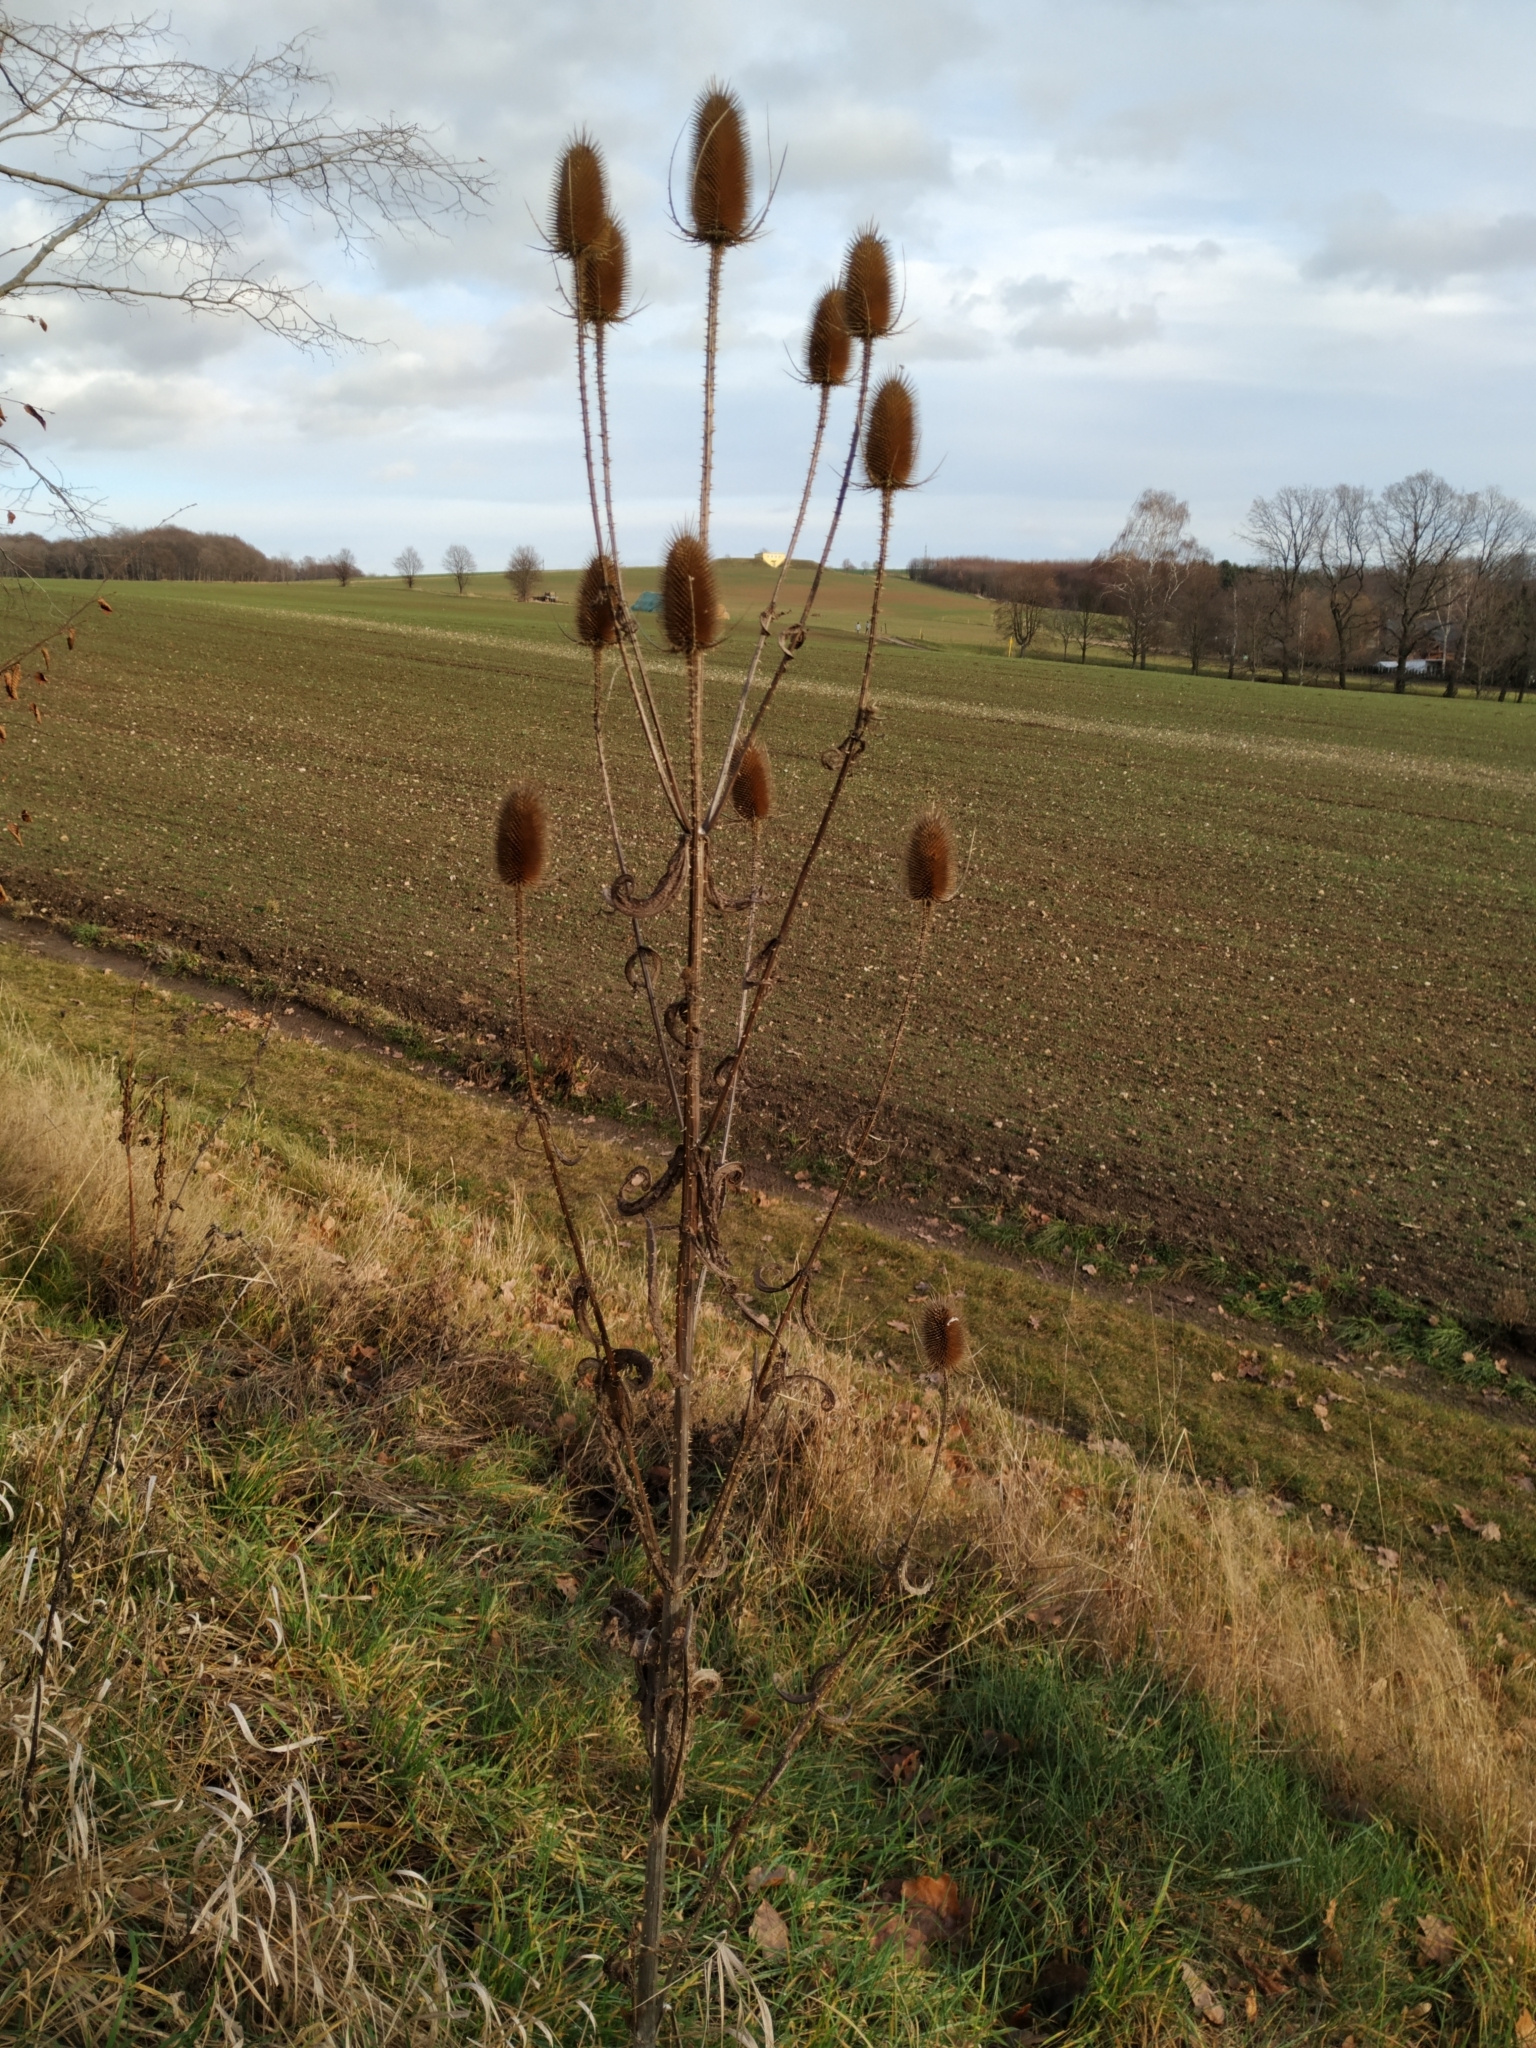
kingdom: Plantae
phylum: Tracheophyta
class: Magnoliopsida
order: Dipsacales
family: Caprifoliaceae
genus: Dipsacus
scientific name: Dipsacus fullonum
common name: Teasel
